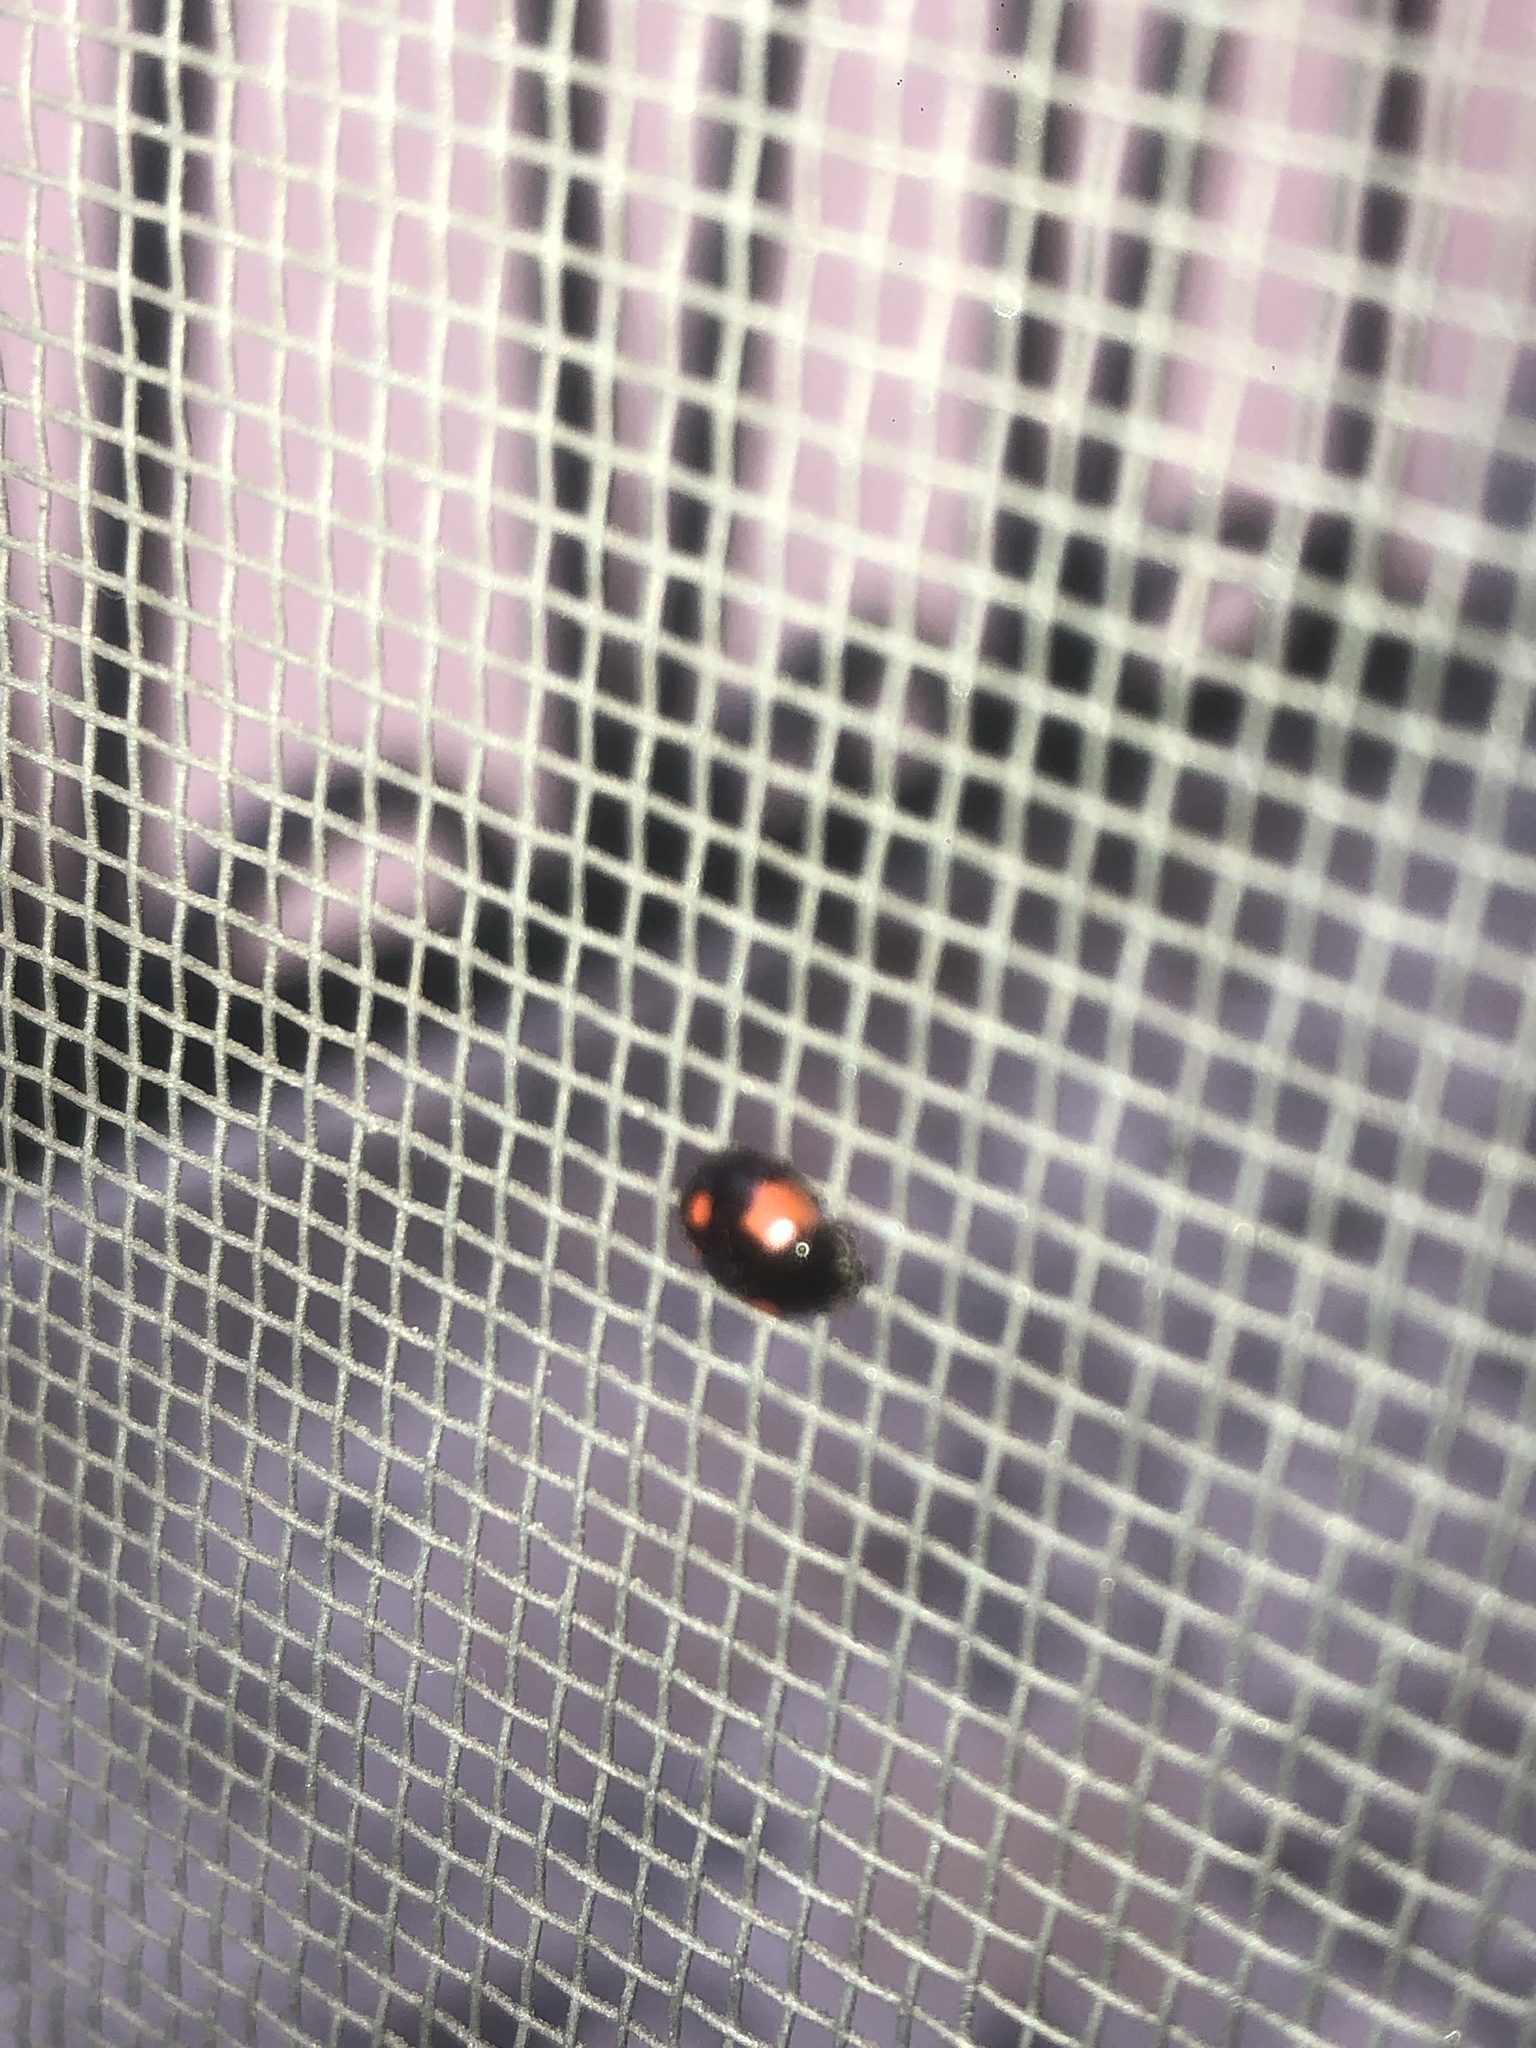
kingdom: Animalia
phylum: Arthropoda
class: Insecta
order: Coleoptera
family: Coccinellidae
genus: Adalia
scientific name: Adalia bipunctata
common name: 2-spot ladybird
